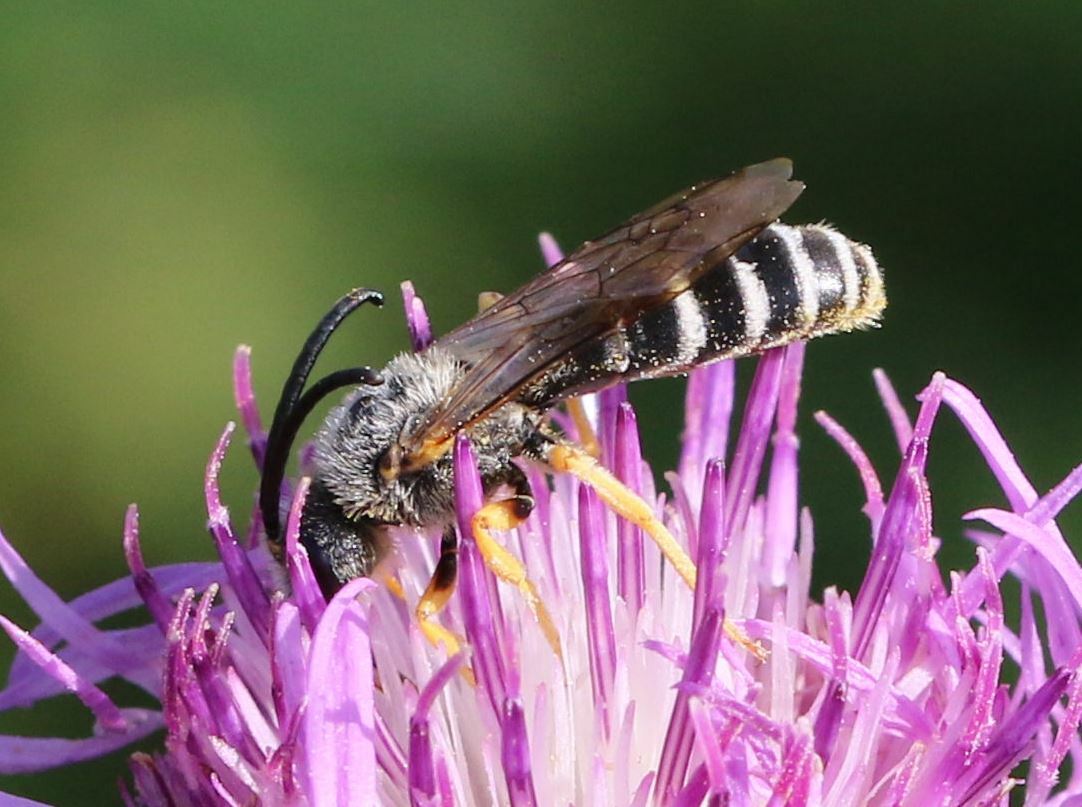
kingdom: Animalia
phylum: Arthropoda
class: Insecta
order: Hymenoptera
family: Halictidae
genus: Halictus
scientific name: Halictus scabiosae
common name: Great banded furrow bee
